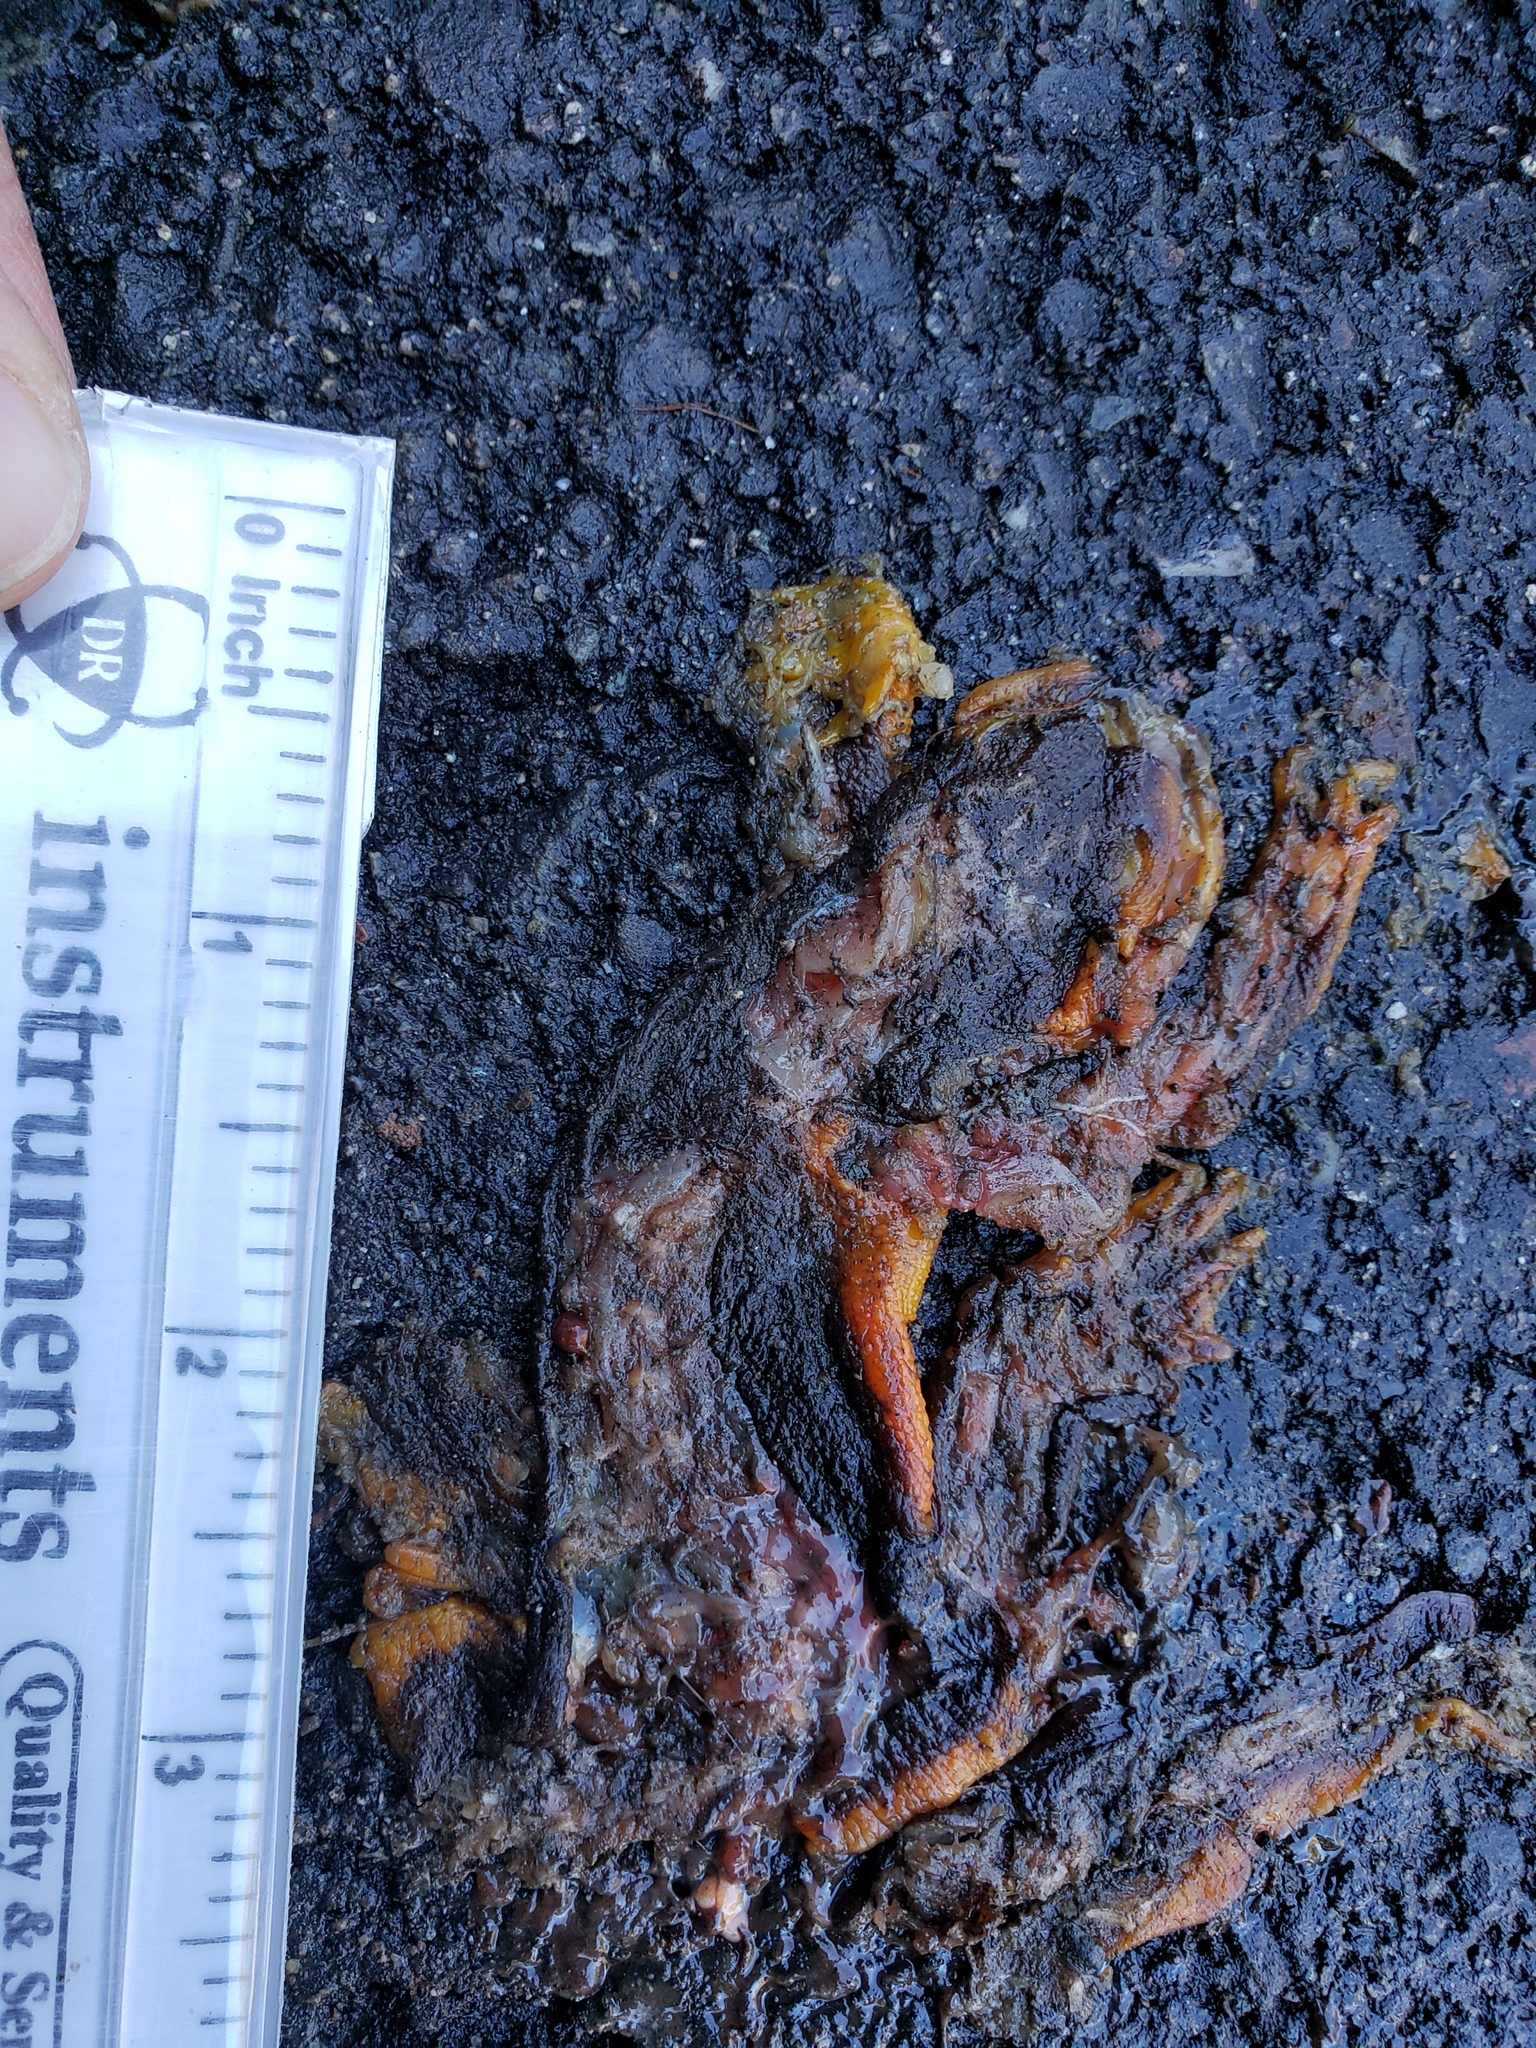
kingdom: Animalia
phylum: Chordata
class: Amphibia
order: Caudata
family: Salamandridae
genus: Taricha
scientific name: Taricha
